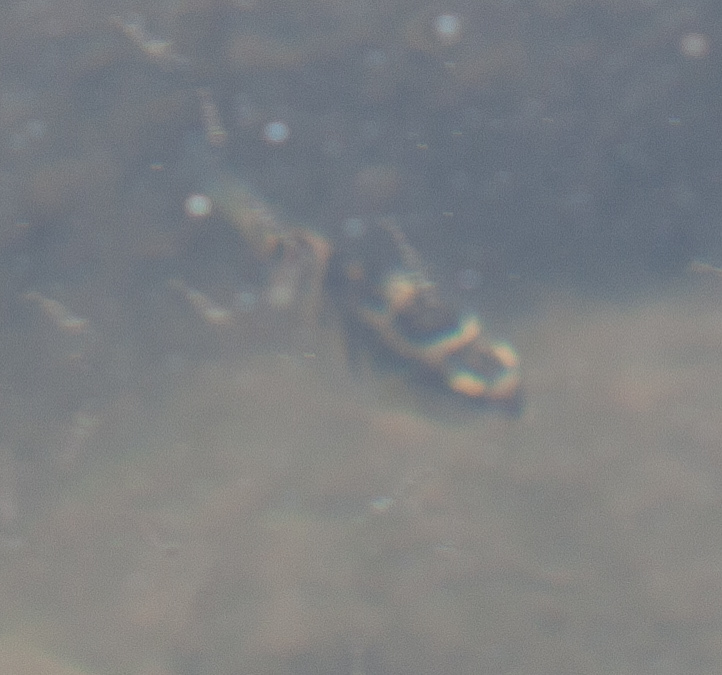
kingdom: Animalia
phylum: Chordata
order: Perciformes
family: Pomacentridae
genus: Abudefduf
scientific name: Abudefduf concolor
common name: Dusky seargent
